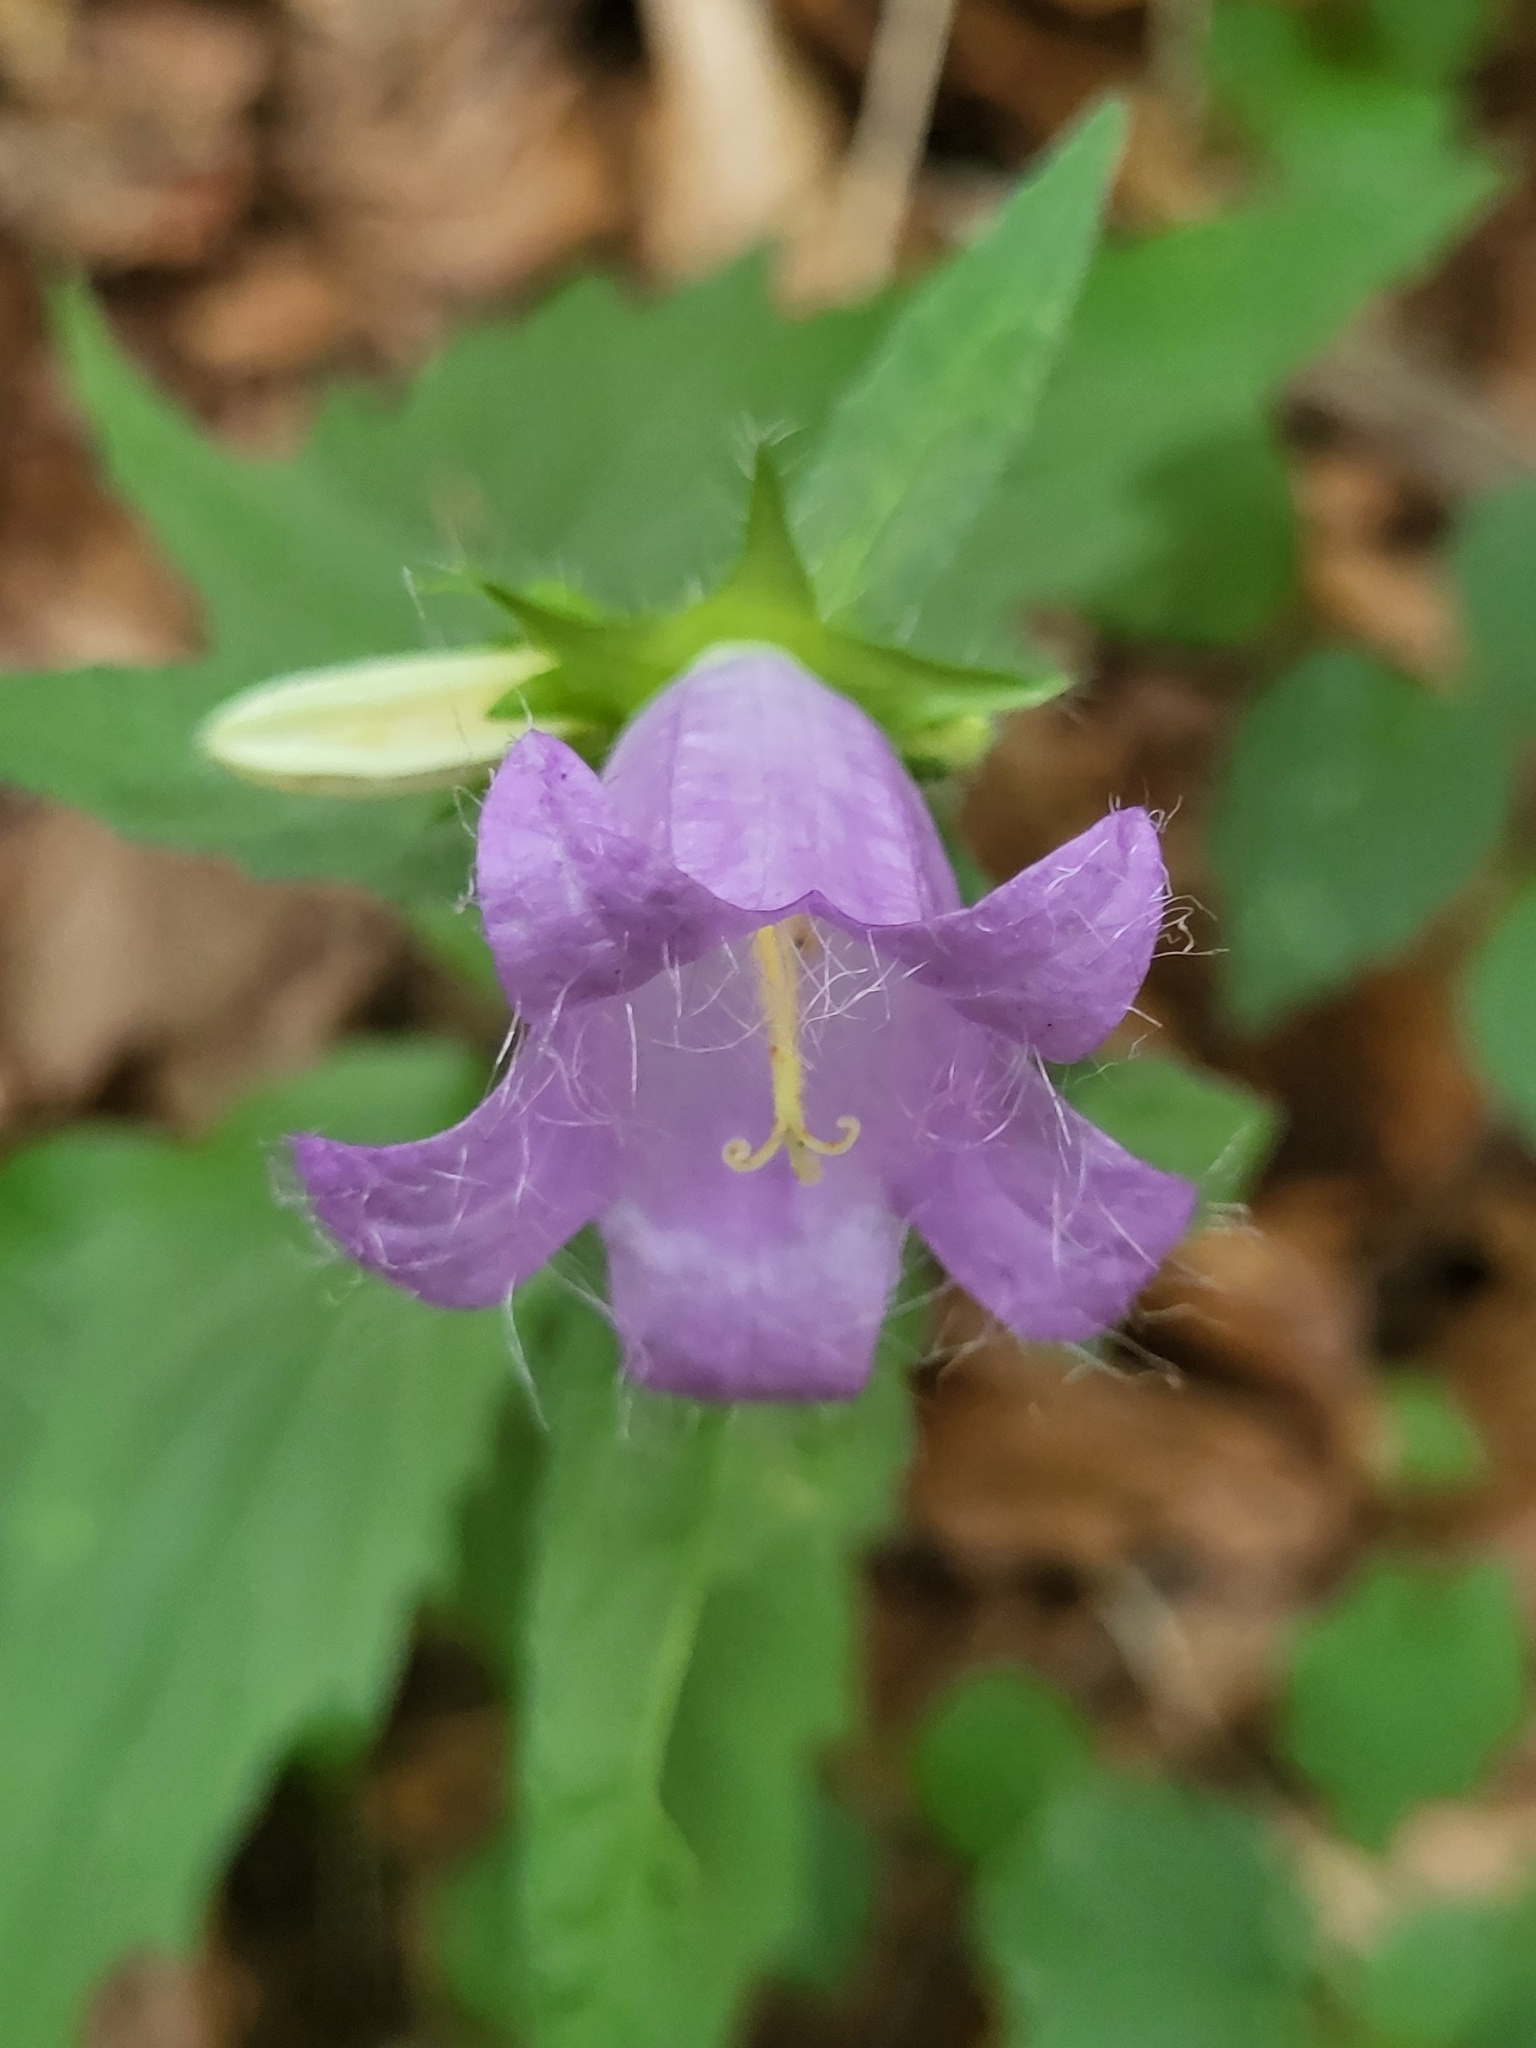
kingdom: Plantae
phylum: Tracheophyta
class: Magnoliopsida
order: Asterales
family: Campanulaceae
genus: Campanula
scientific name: Campanula trachelium
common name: Nettle-leaved bellflower
